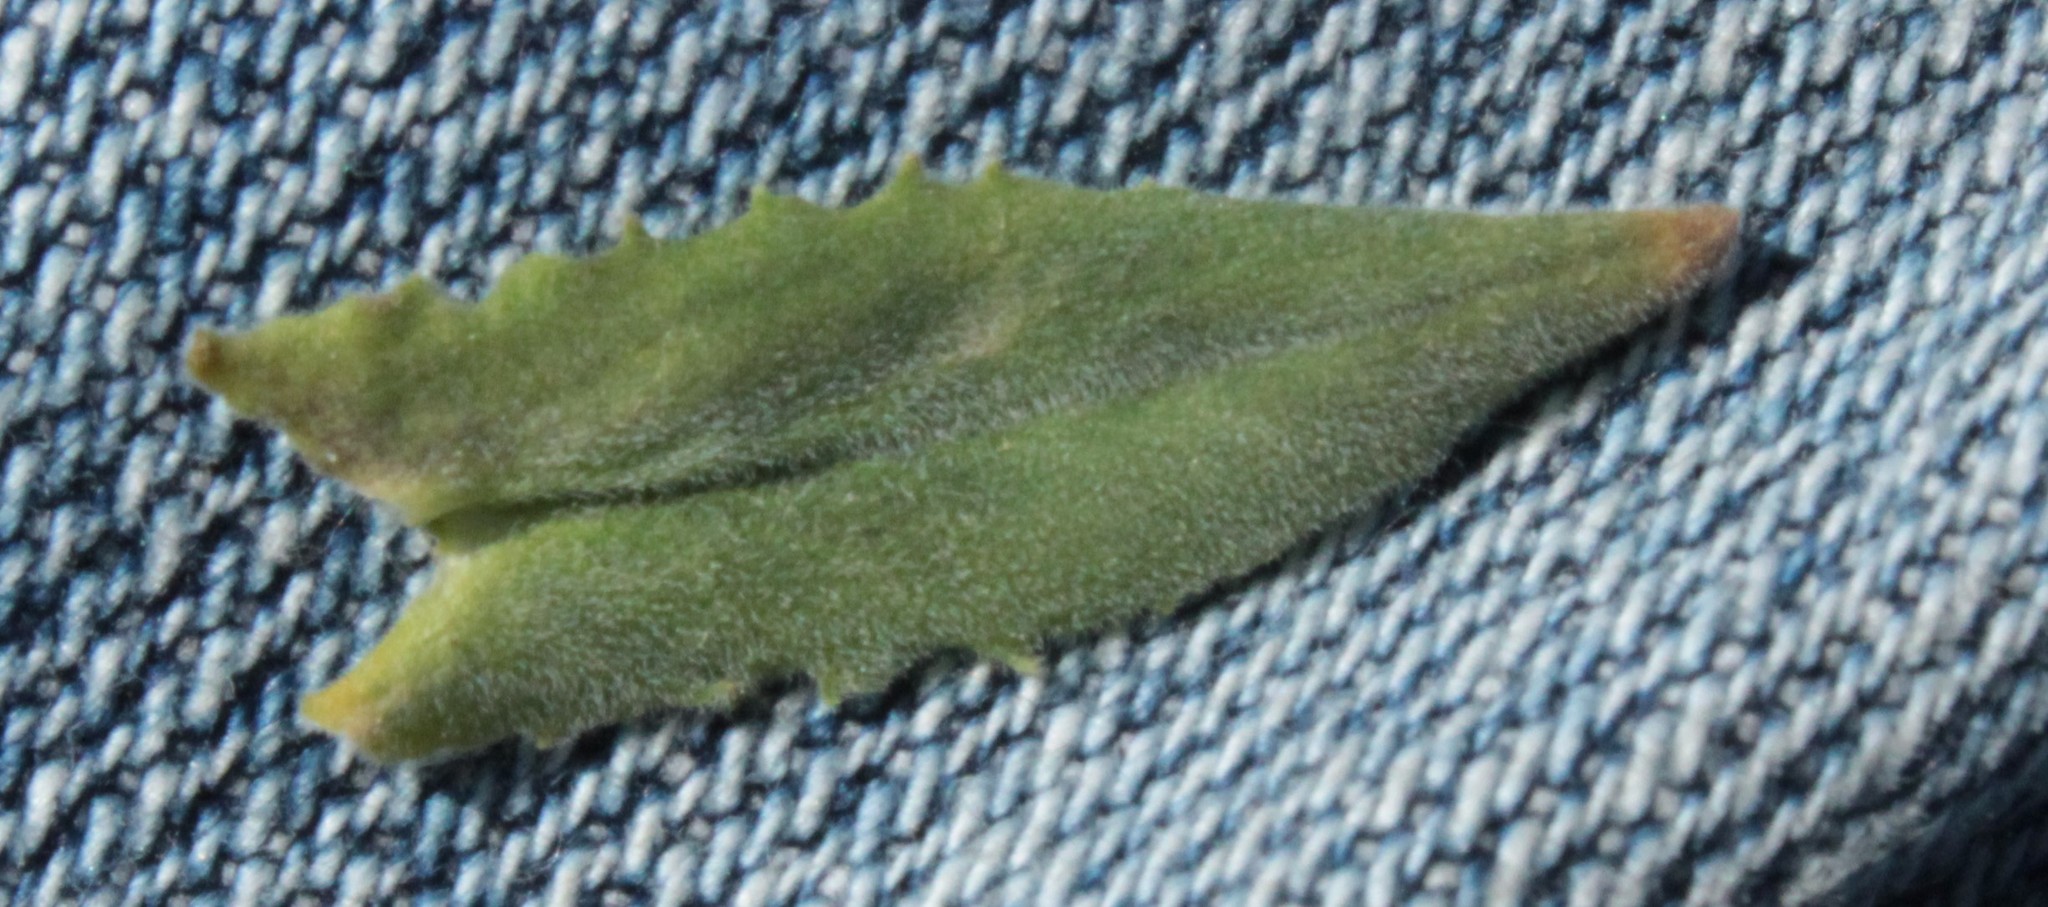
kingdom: Plantae
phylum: Tracheophyta
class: Magnoliopsida
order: Brassicales
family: Brassicaceae
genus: Lepidium
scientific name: Lepidium campestre
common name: Field pepperwort
